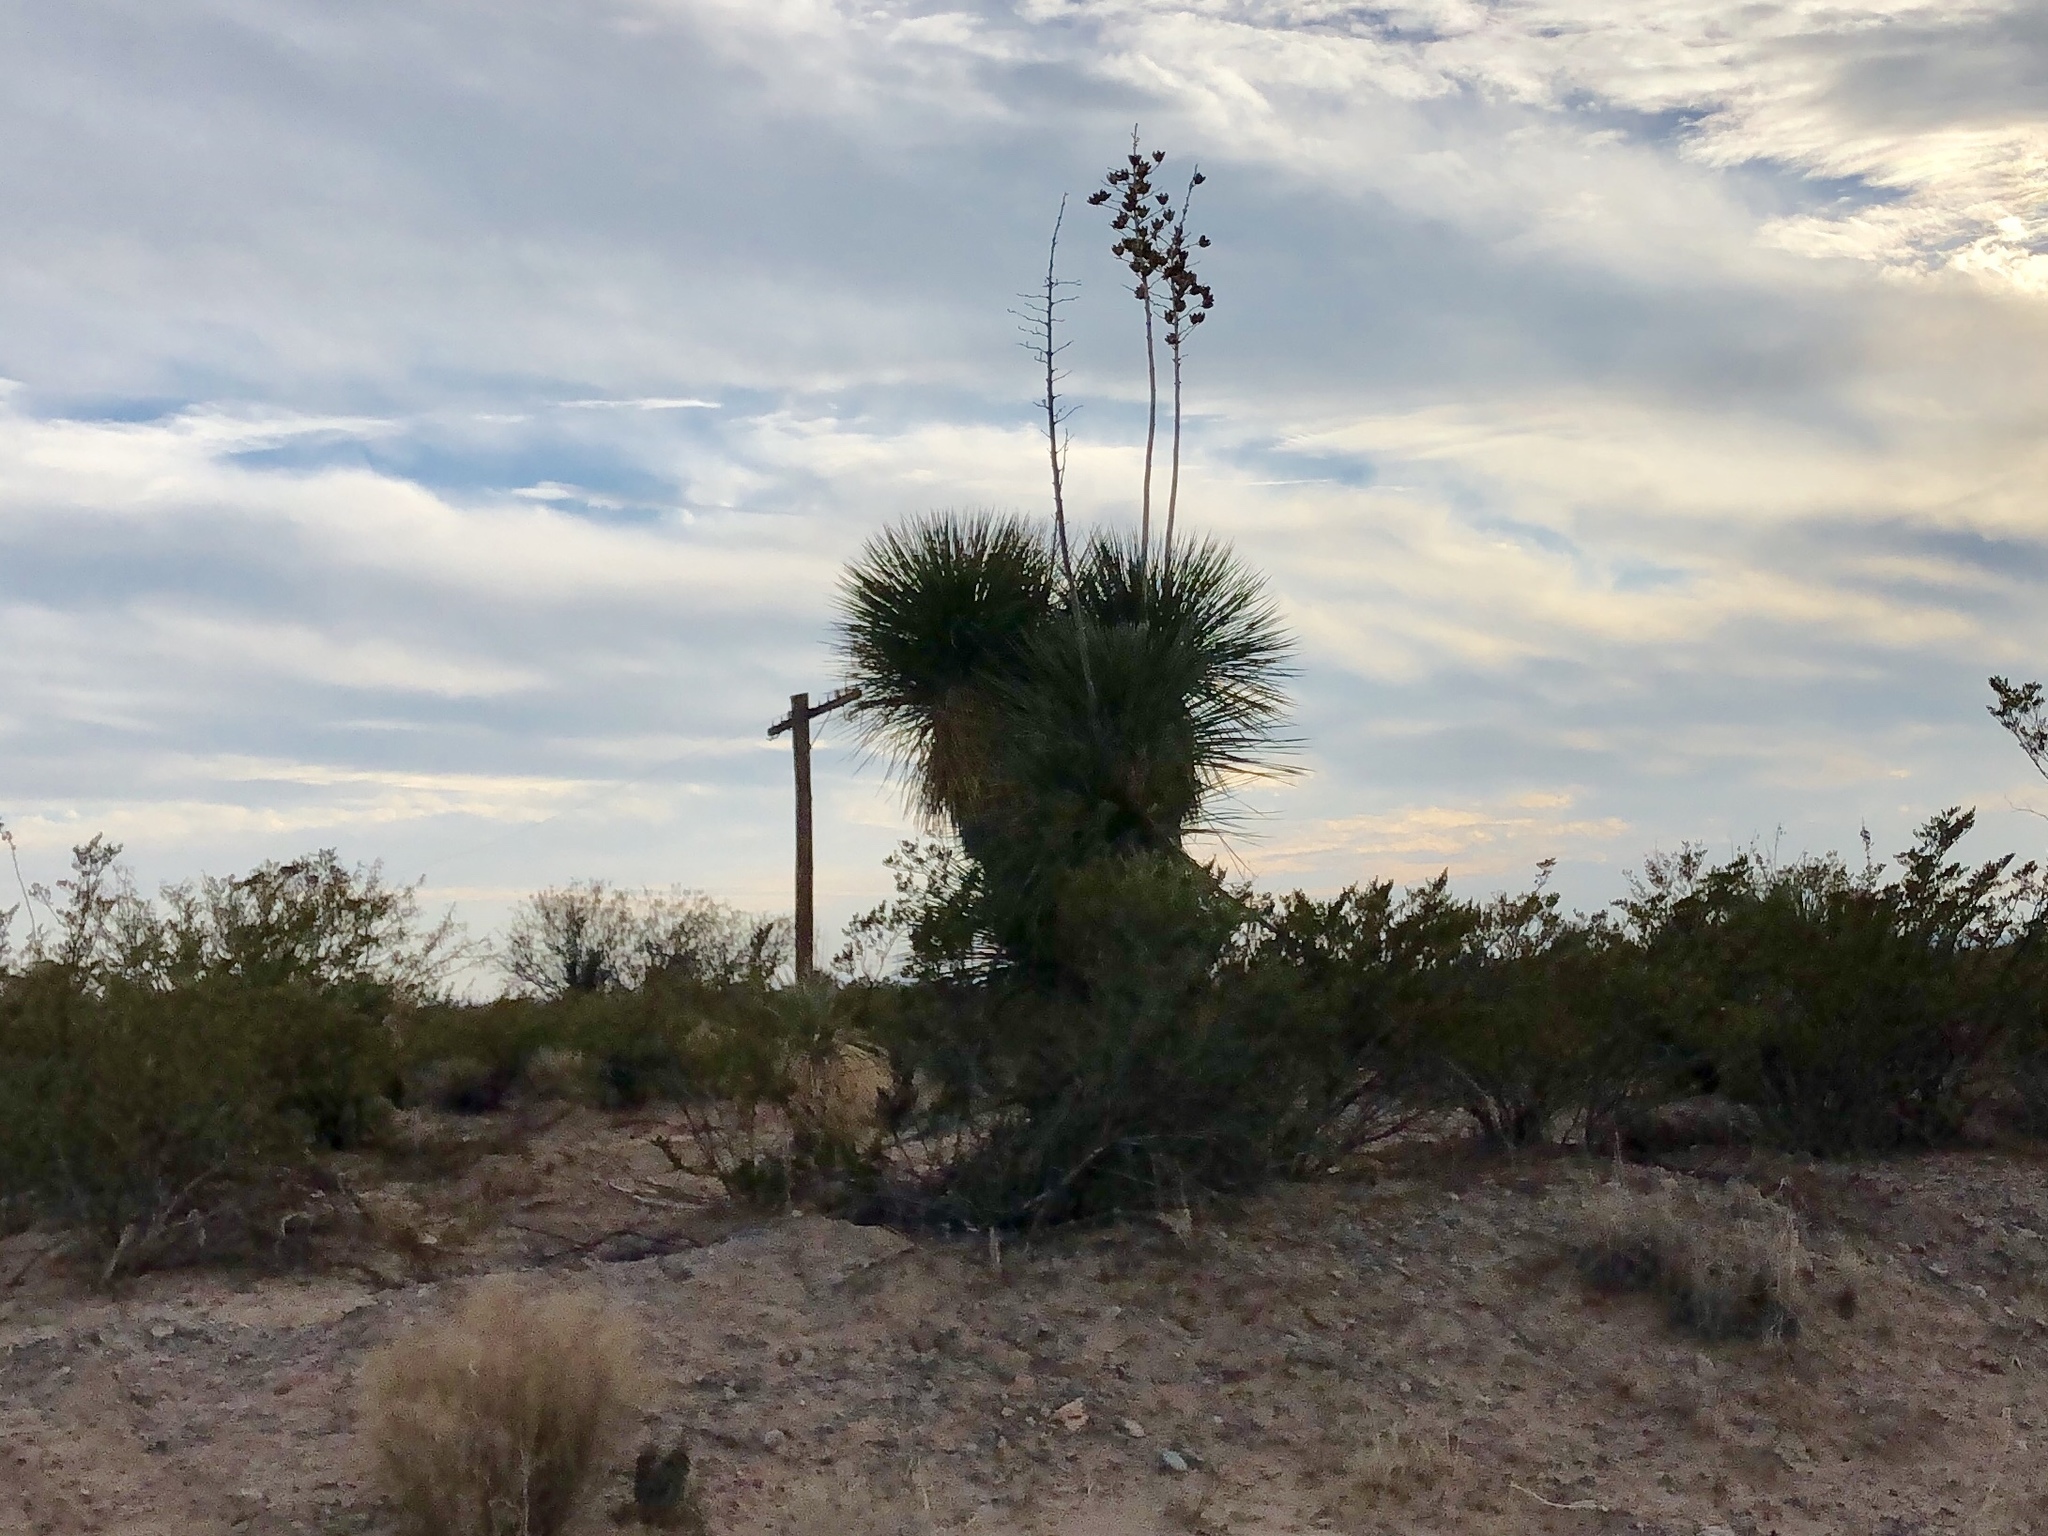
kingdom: Plantae
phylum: Tracheophyta
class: Liliopsida
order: Asparagales
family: Asparagaceae
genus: Yucca
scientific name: Yucca elata
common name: Palmella
